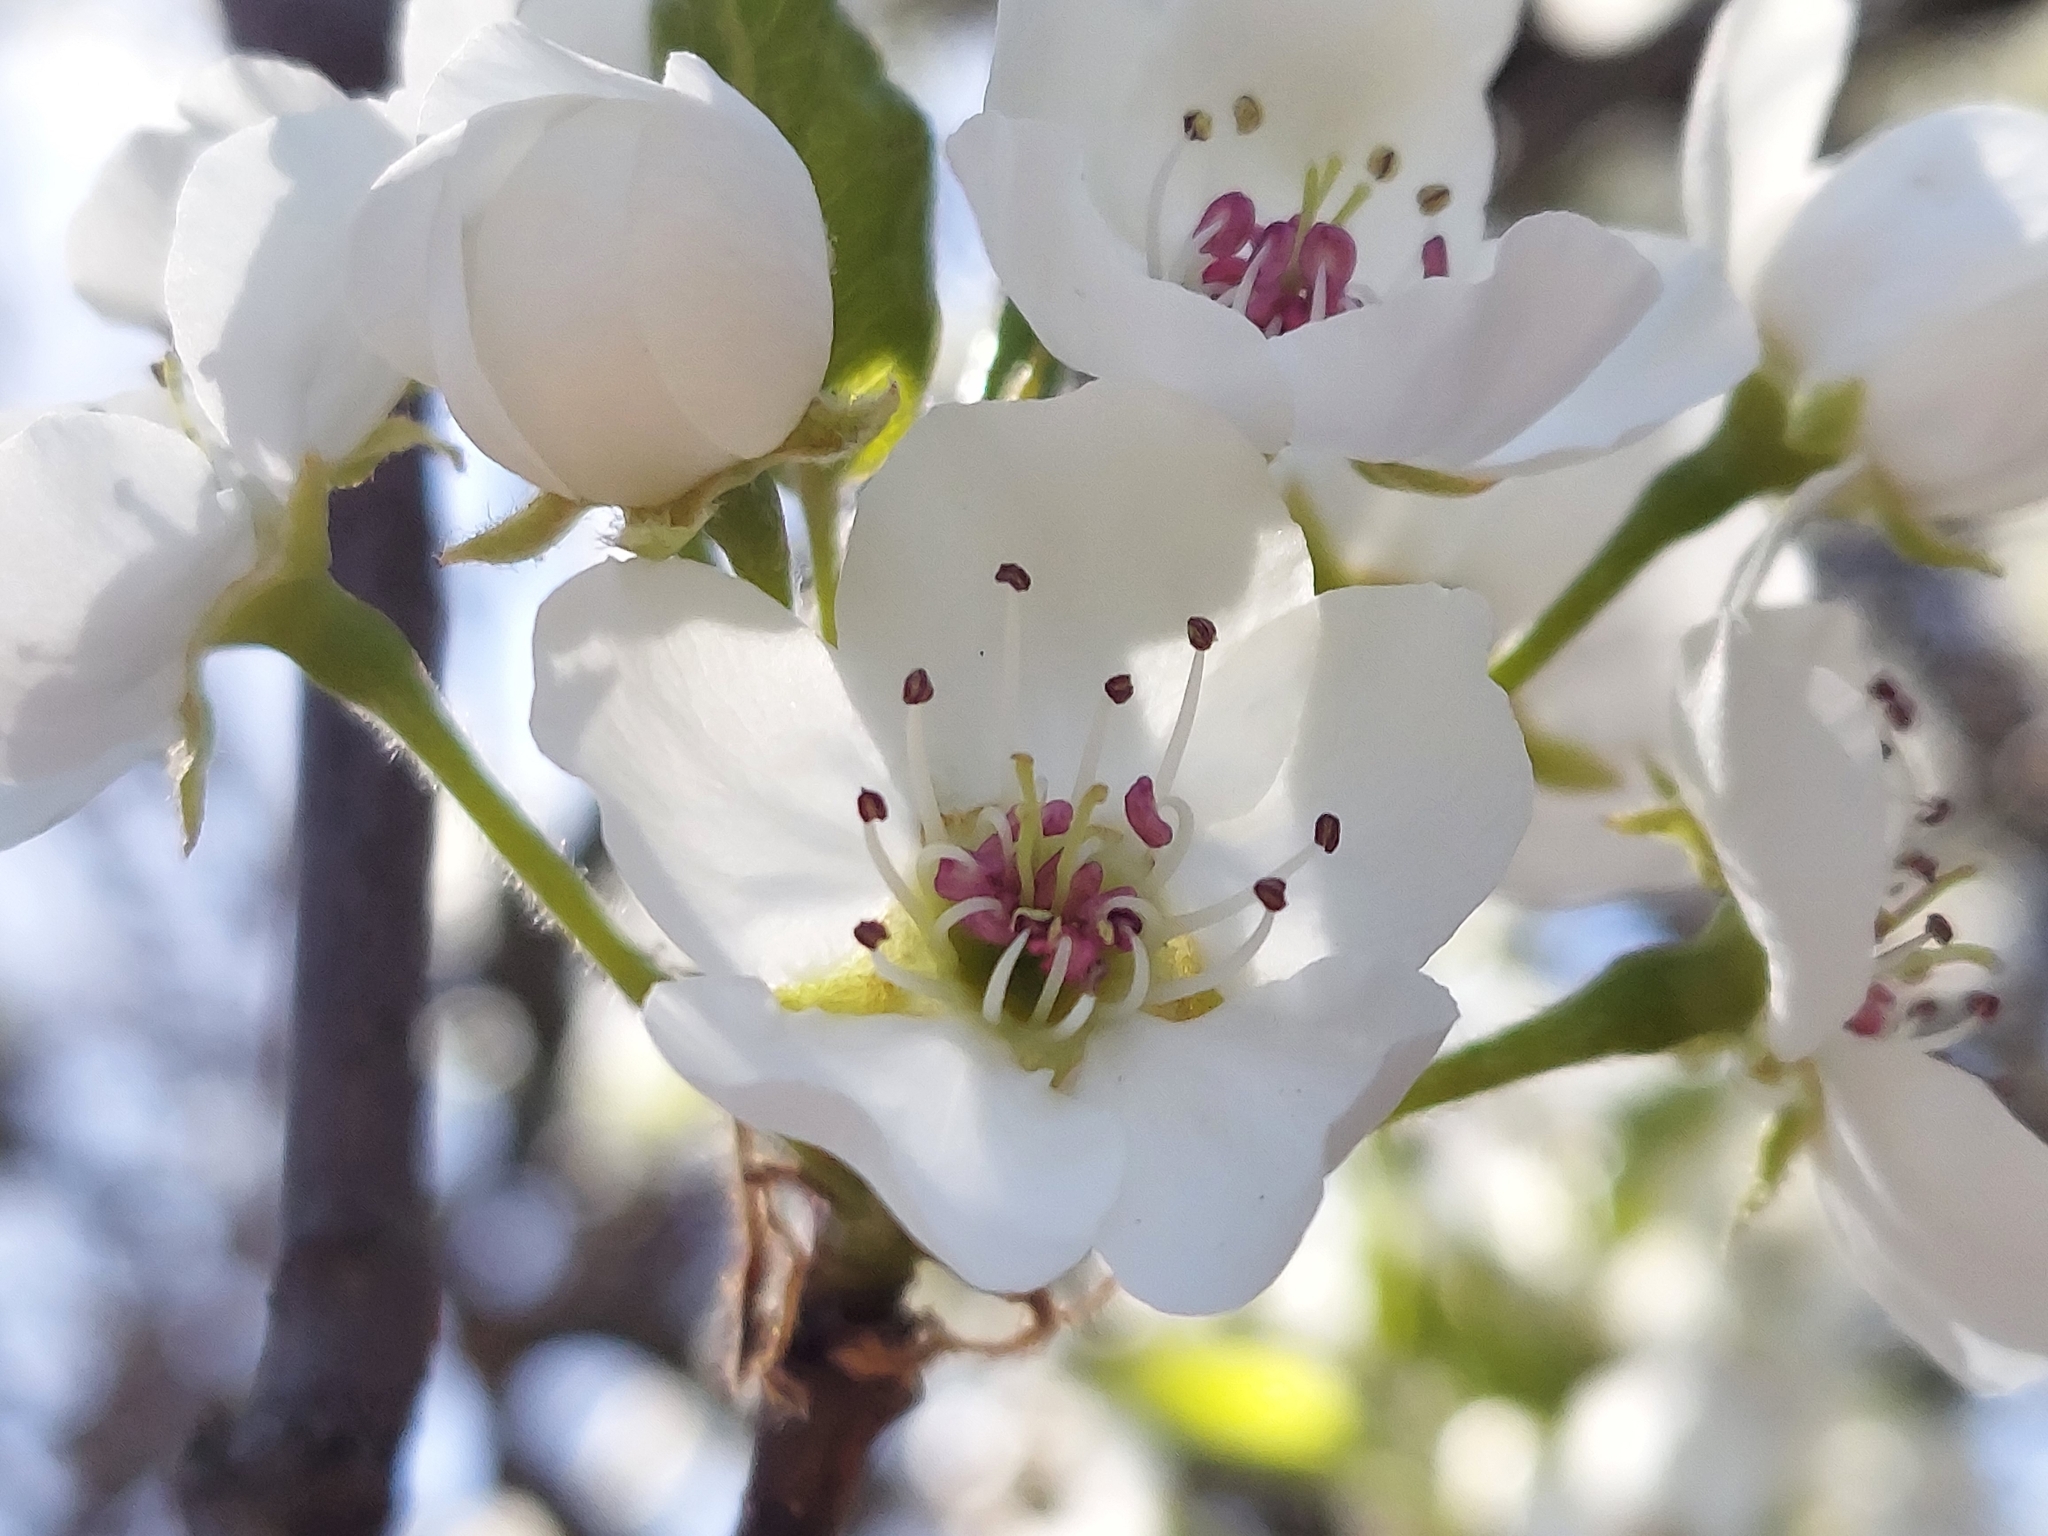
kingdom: Plantae
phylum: Tracheophyta
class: Magnoliopsida
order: Rosales
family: Rosaceae
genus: Pyrus
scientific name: Pyrus calleryana
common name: Callery pear
